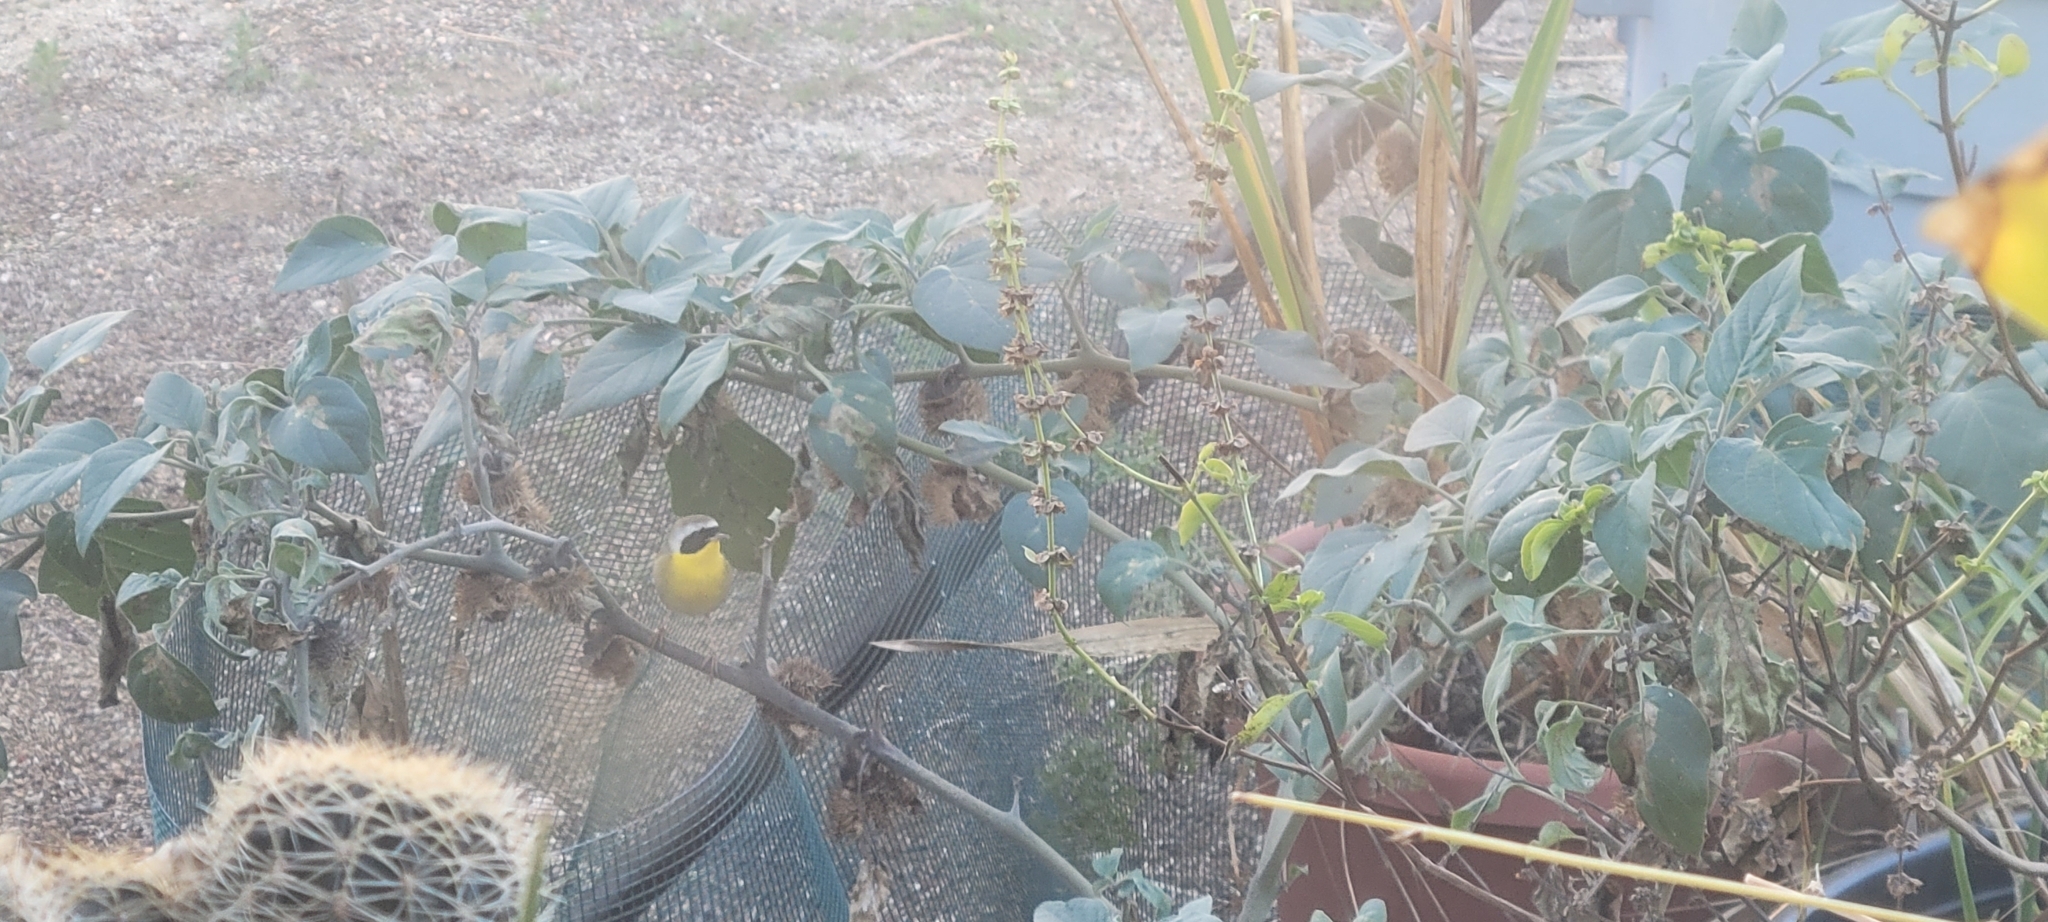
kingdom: Animalia
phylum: Chordata
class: Aves
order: Passeriformes
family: Parulidae
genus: Geothlypis
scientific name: Geothlypis trichas
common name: Common yellowthroat
